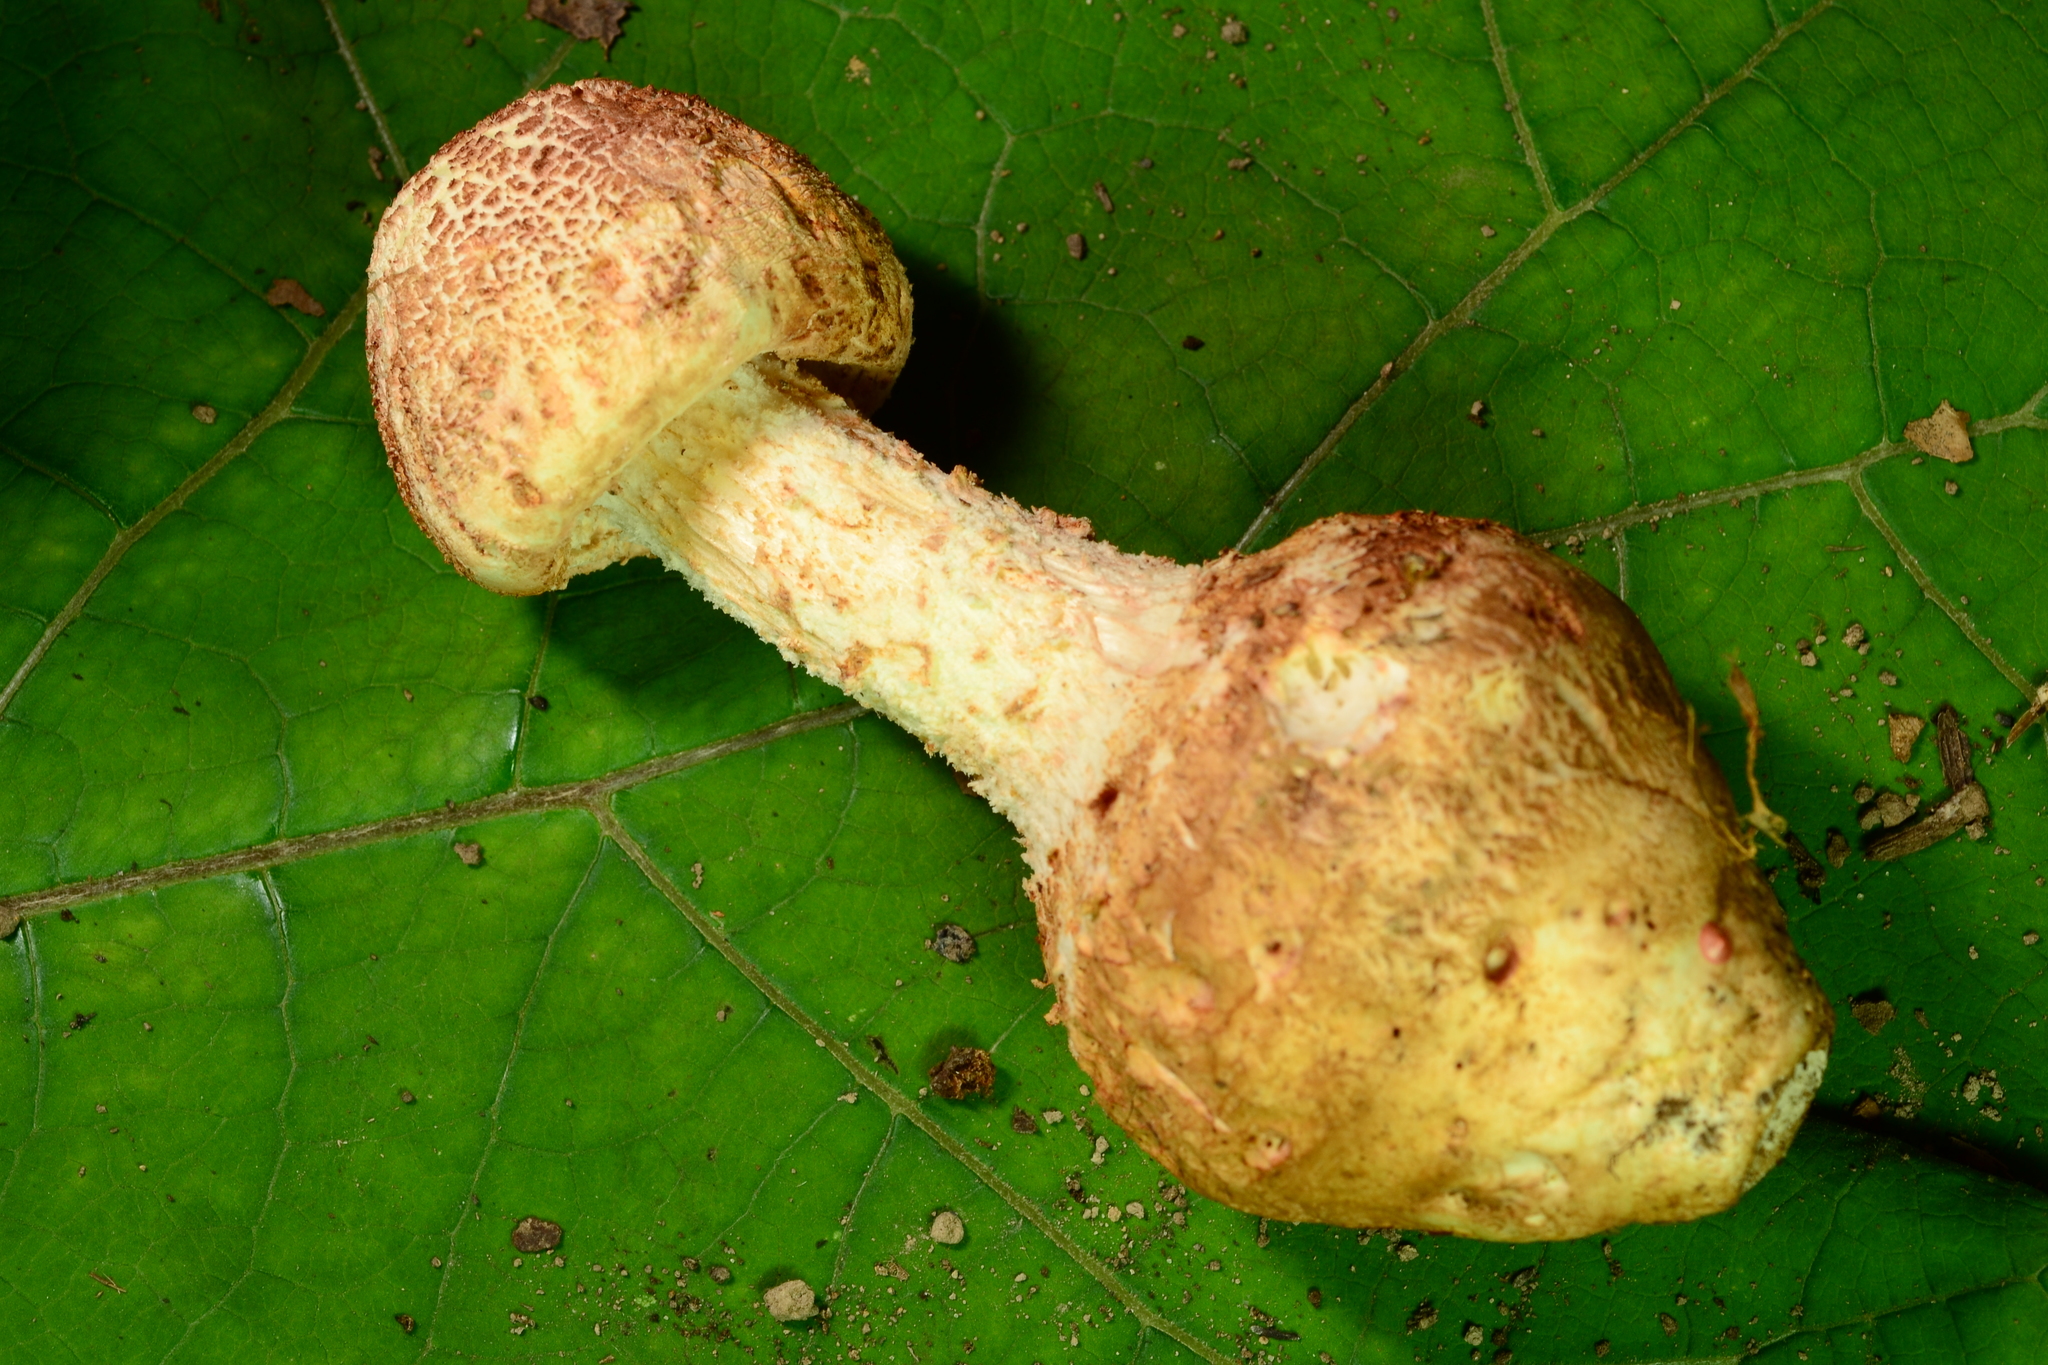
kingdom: Fungi
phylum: Basidiomycota
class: Agaricomycetes
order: Agaricales
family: Amanitaceae
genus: Amanita
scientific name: Amanita daucipes
